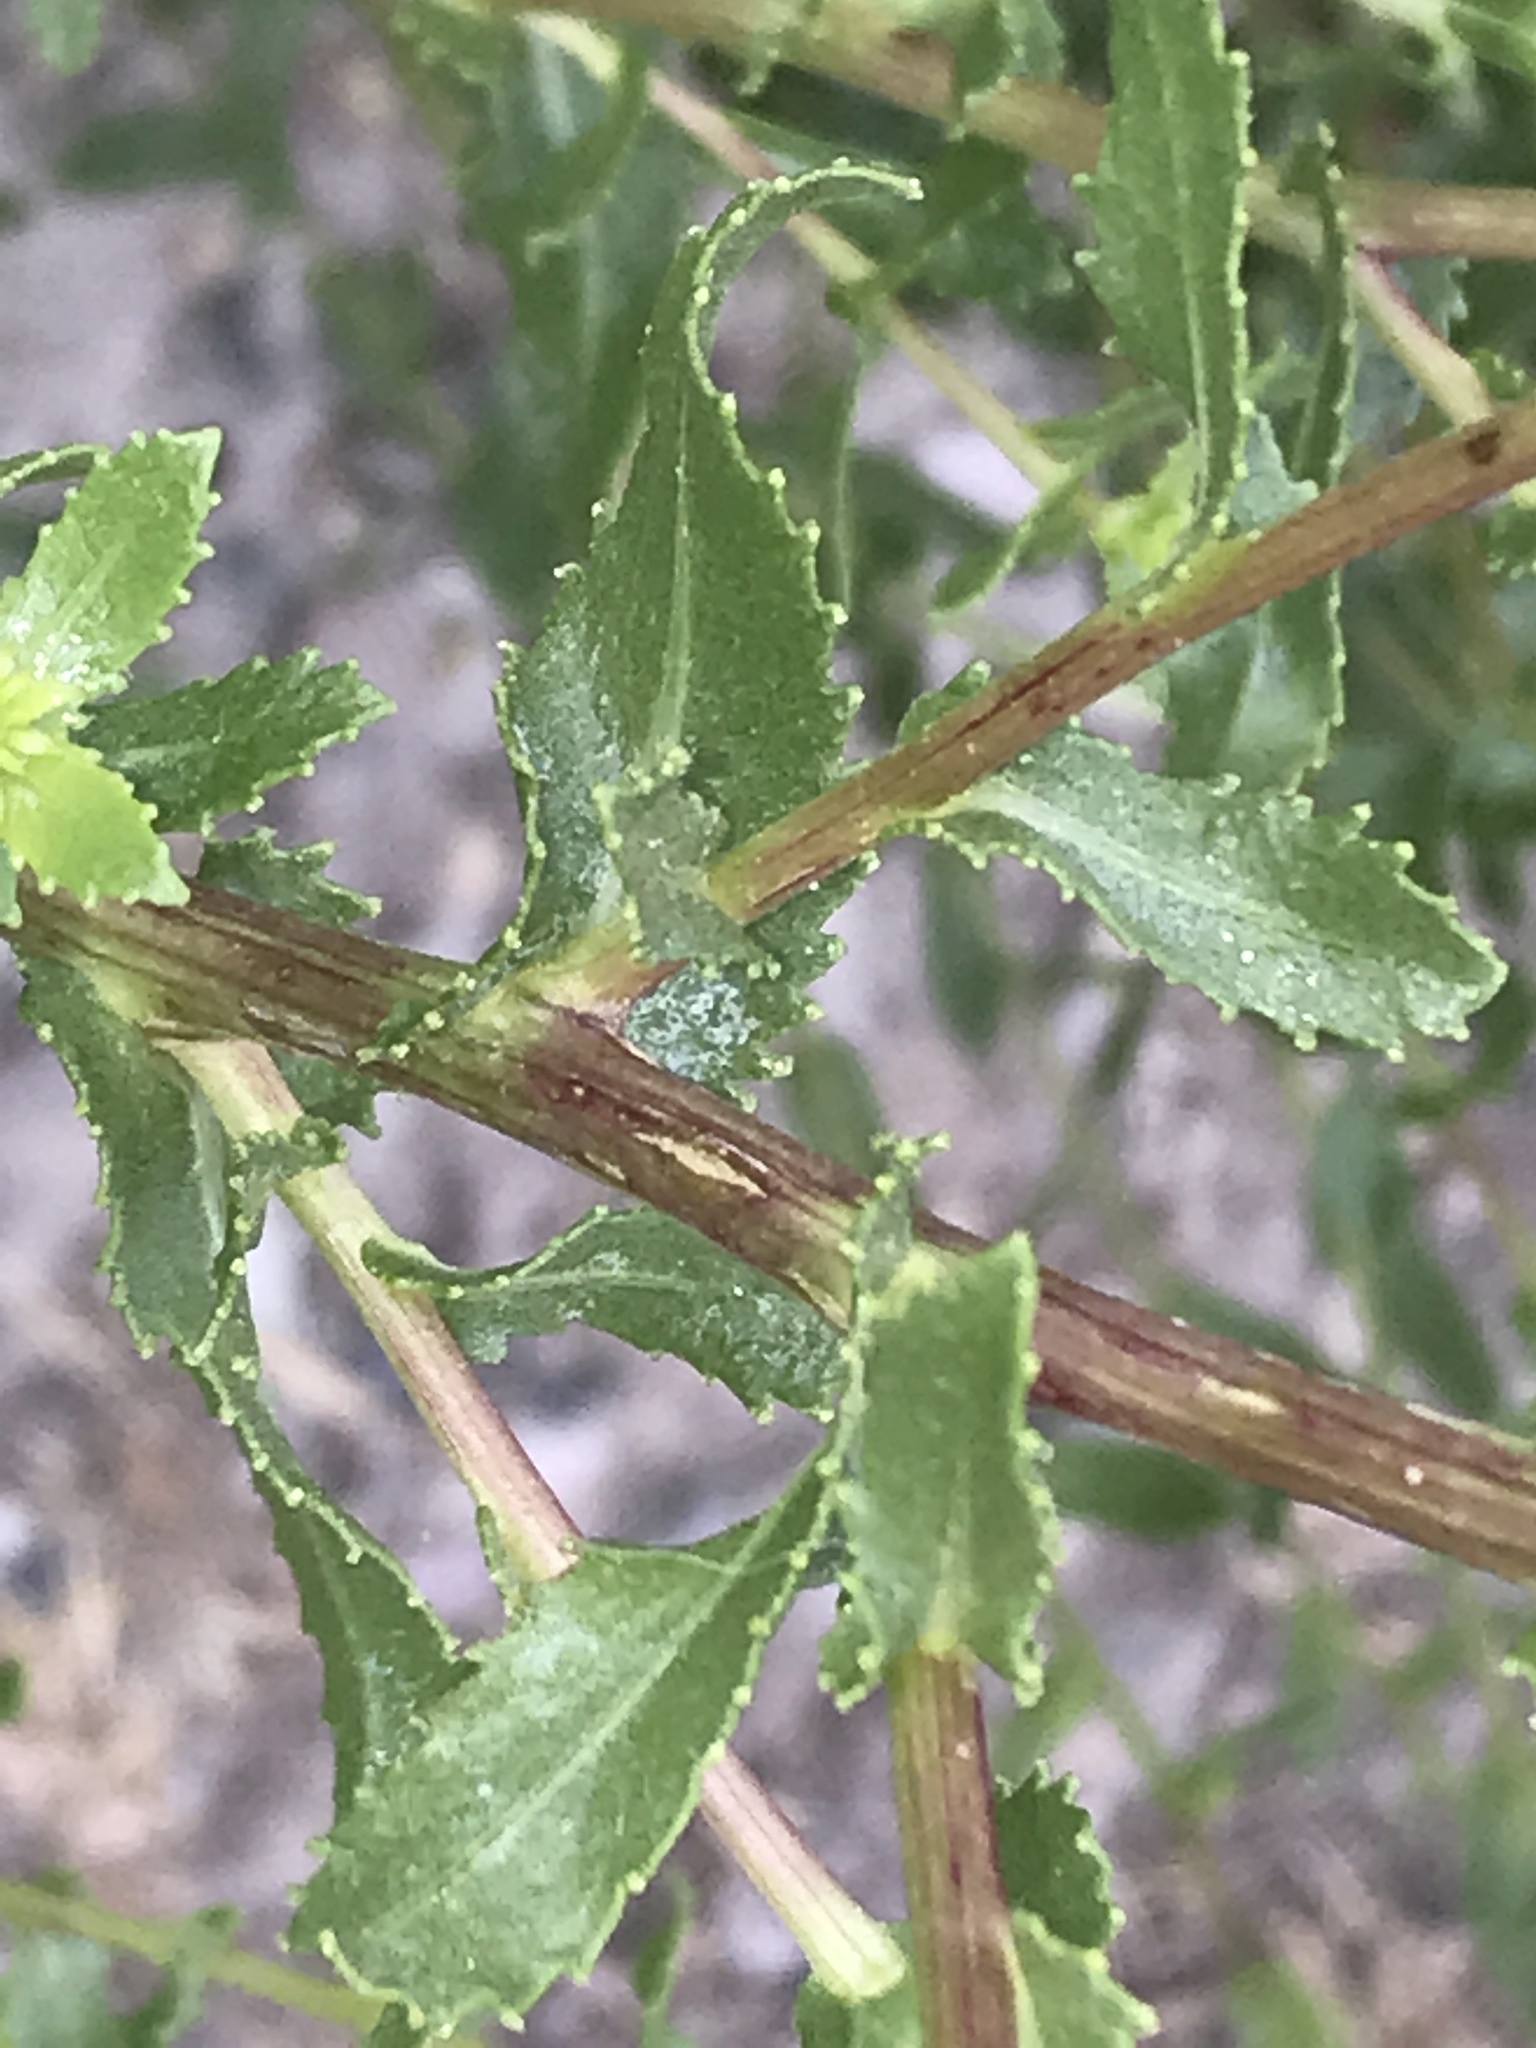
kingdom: Plantae
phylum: Tracheophyta
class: Magnoliopsida
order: Asterales
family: Asteraceae
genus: Grindelia
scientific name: Grindelia squarrosa
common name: Curly-cup gumweed
